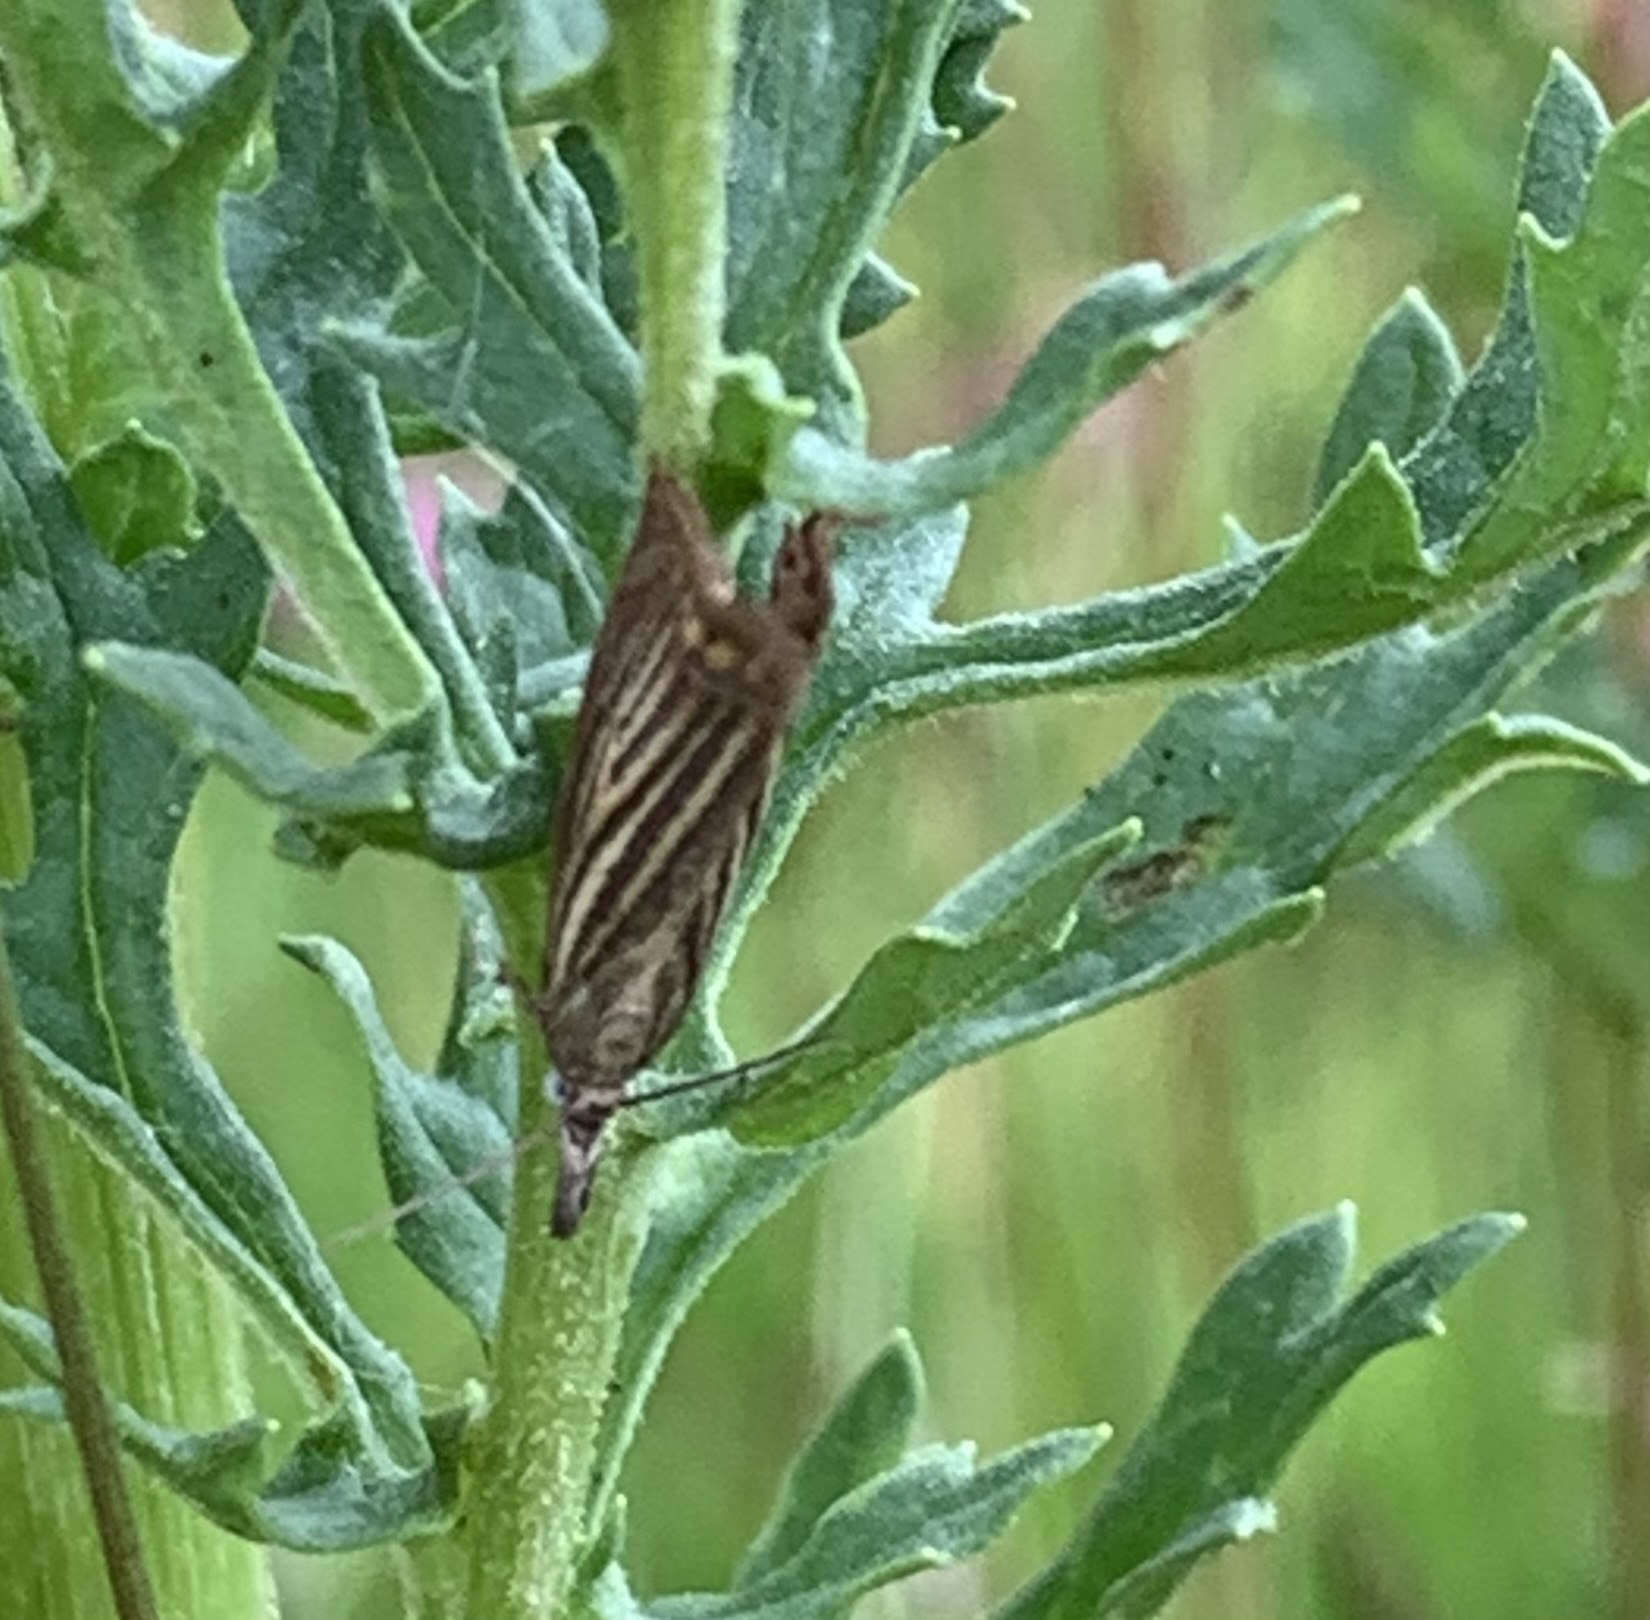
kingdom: Animalia
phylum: Arthropoda
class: Insecta
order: Lepidoptera
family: Crambidae
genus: Chrysoteuchia
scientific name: Chrysoteuchia culmella
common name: Garden grass-veneer
